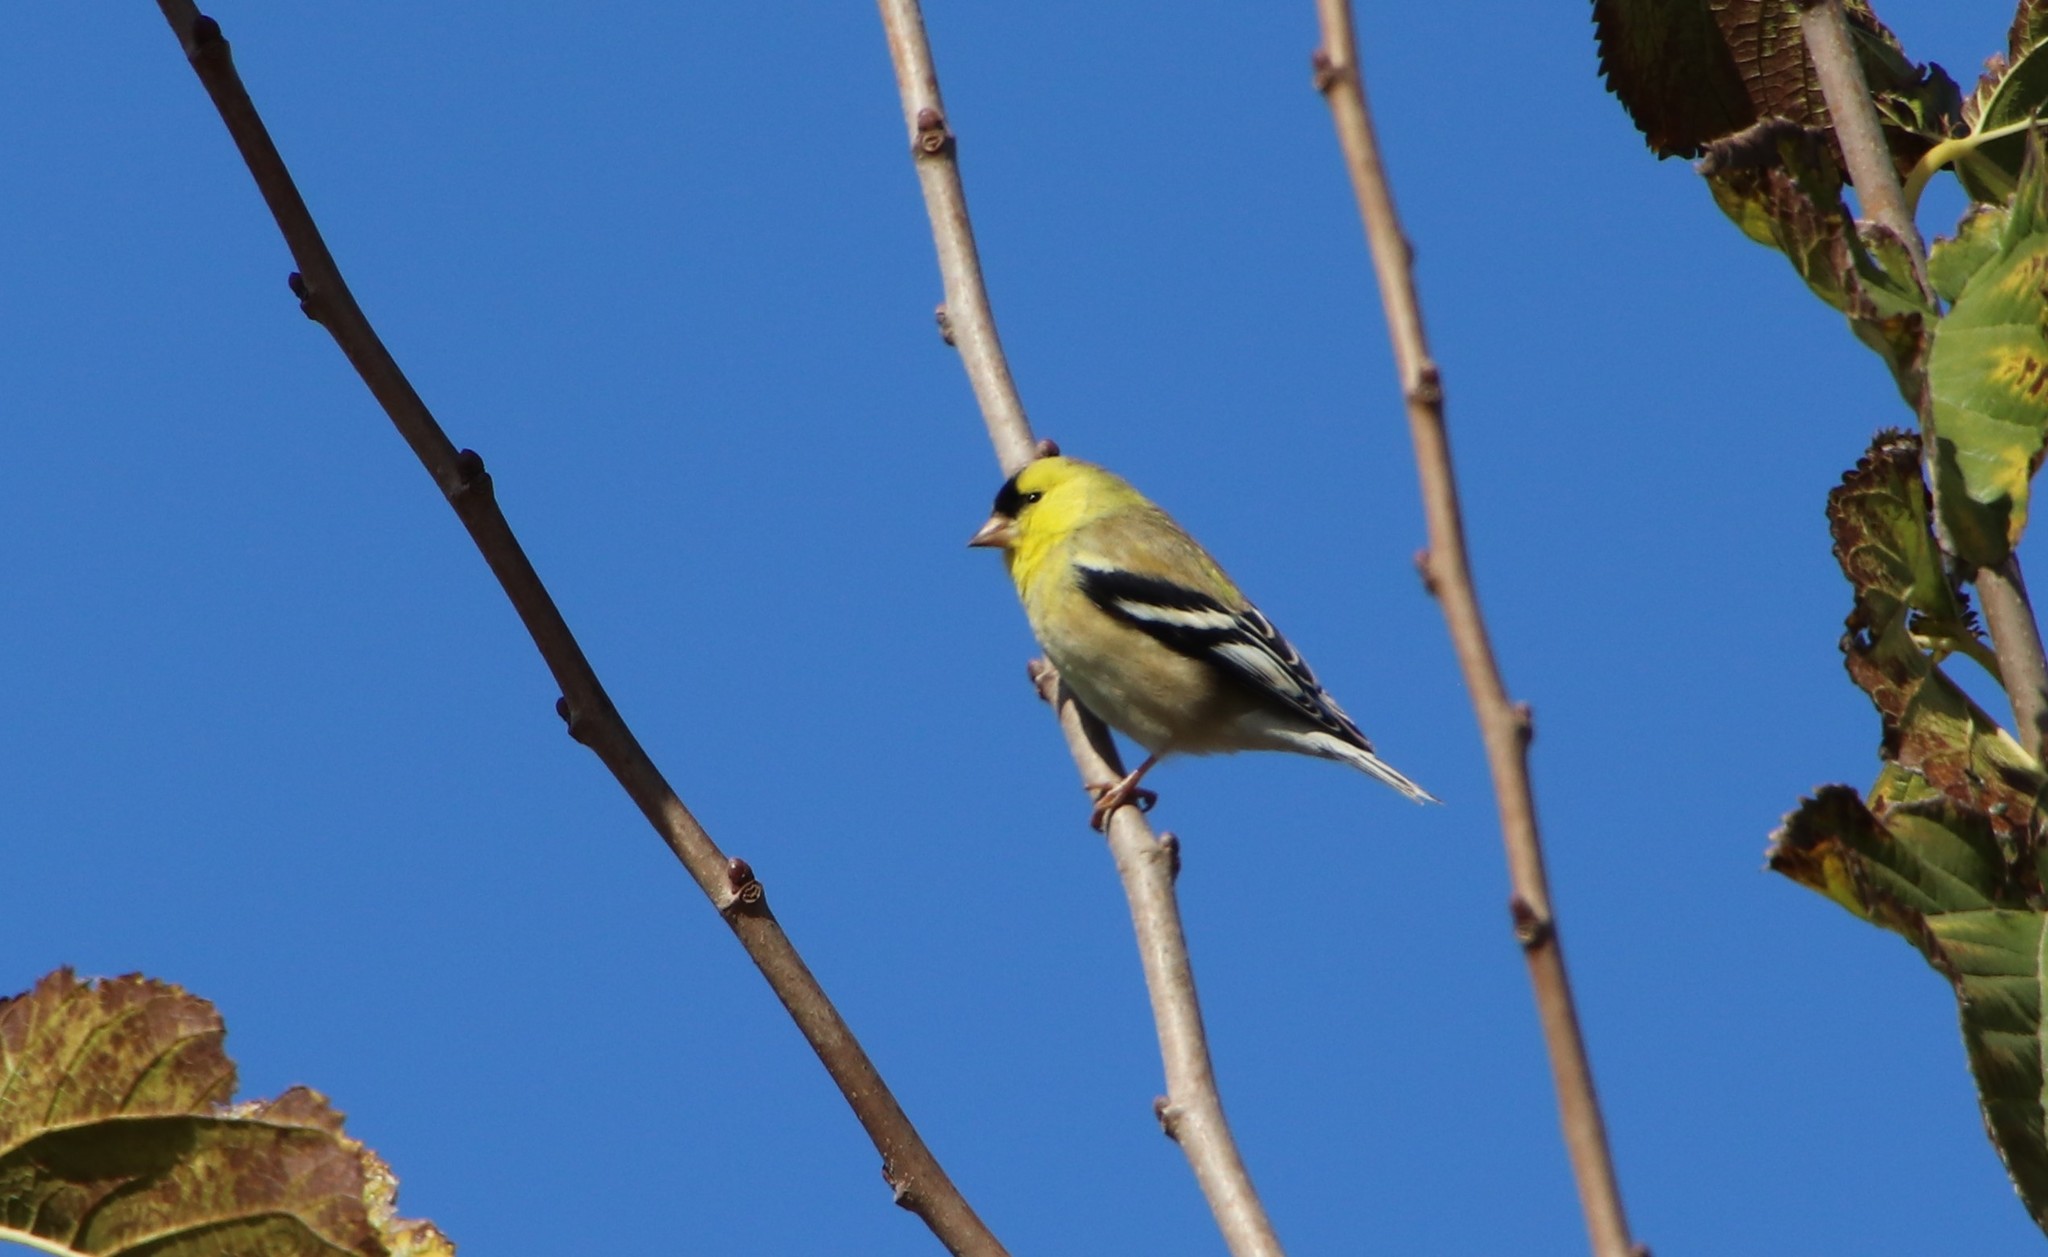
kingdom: Animalia
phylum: Chordata
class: Aves
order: Passeriformes
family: Fringillidae
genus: Spinus
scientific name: Spinus tristis
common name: American goldfinch
